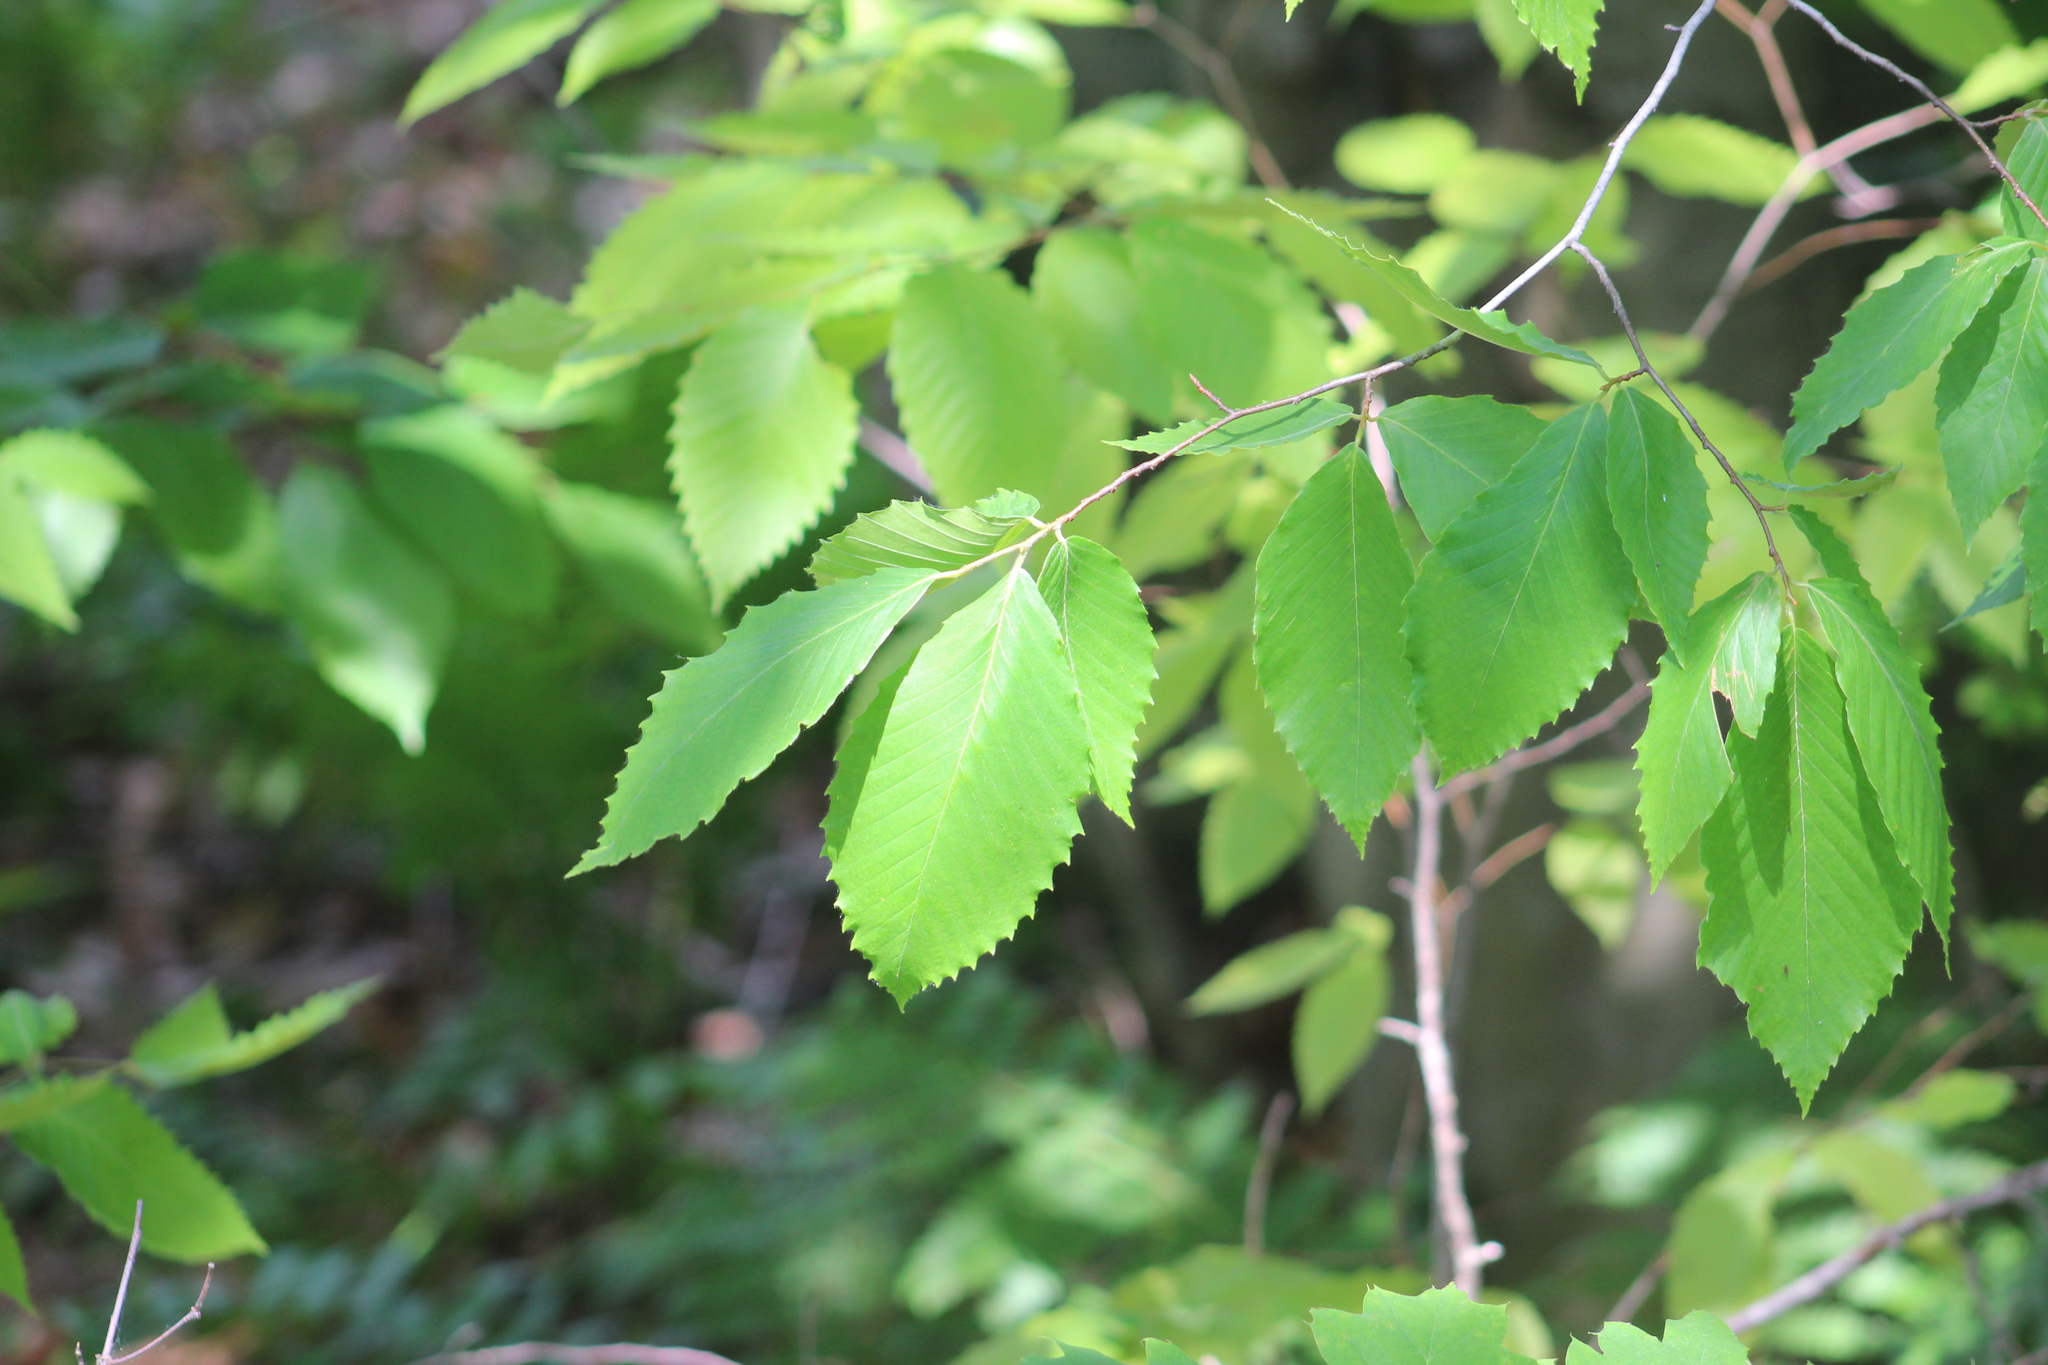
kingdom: Plantae
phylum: Tracheophyta
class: Magnoliopsida
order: Fagales
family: Fagaceae
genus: Fagus
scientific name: Fagus grandifolia
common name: American beech
